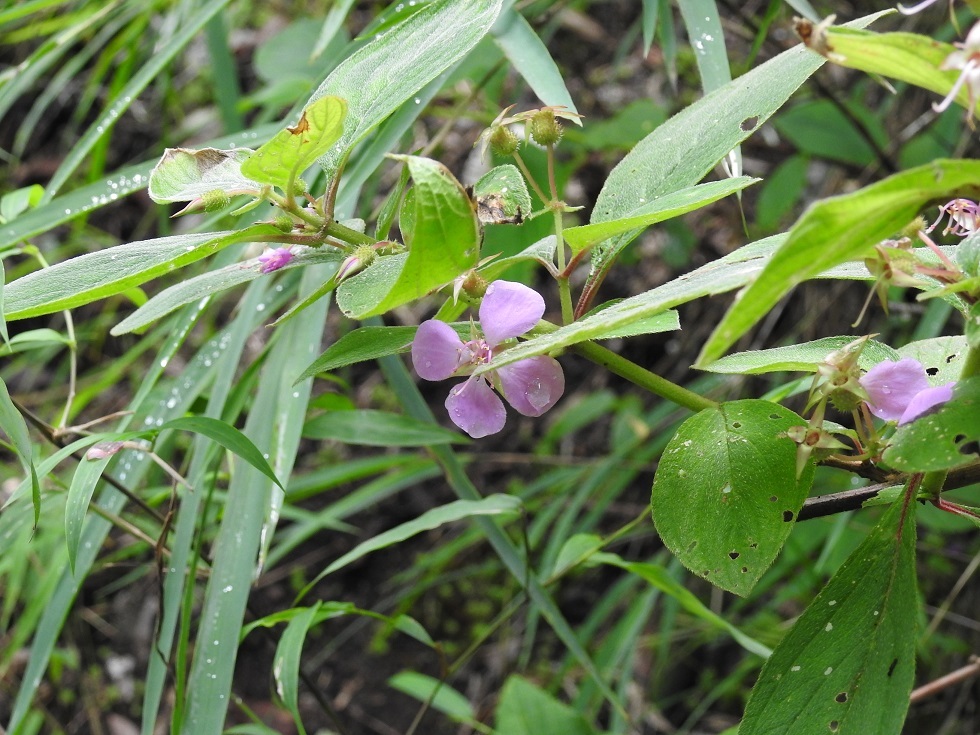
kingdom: Plantae
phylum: Tracheophyta
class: Magnoliopsida
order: Myrtales
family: Melastomataceae
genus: Heterocentron
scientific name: Heterocentron muricatum
